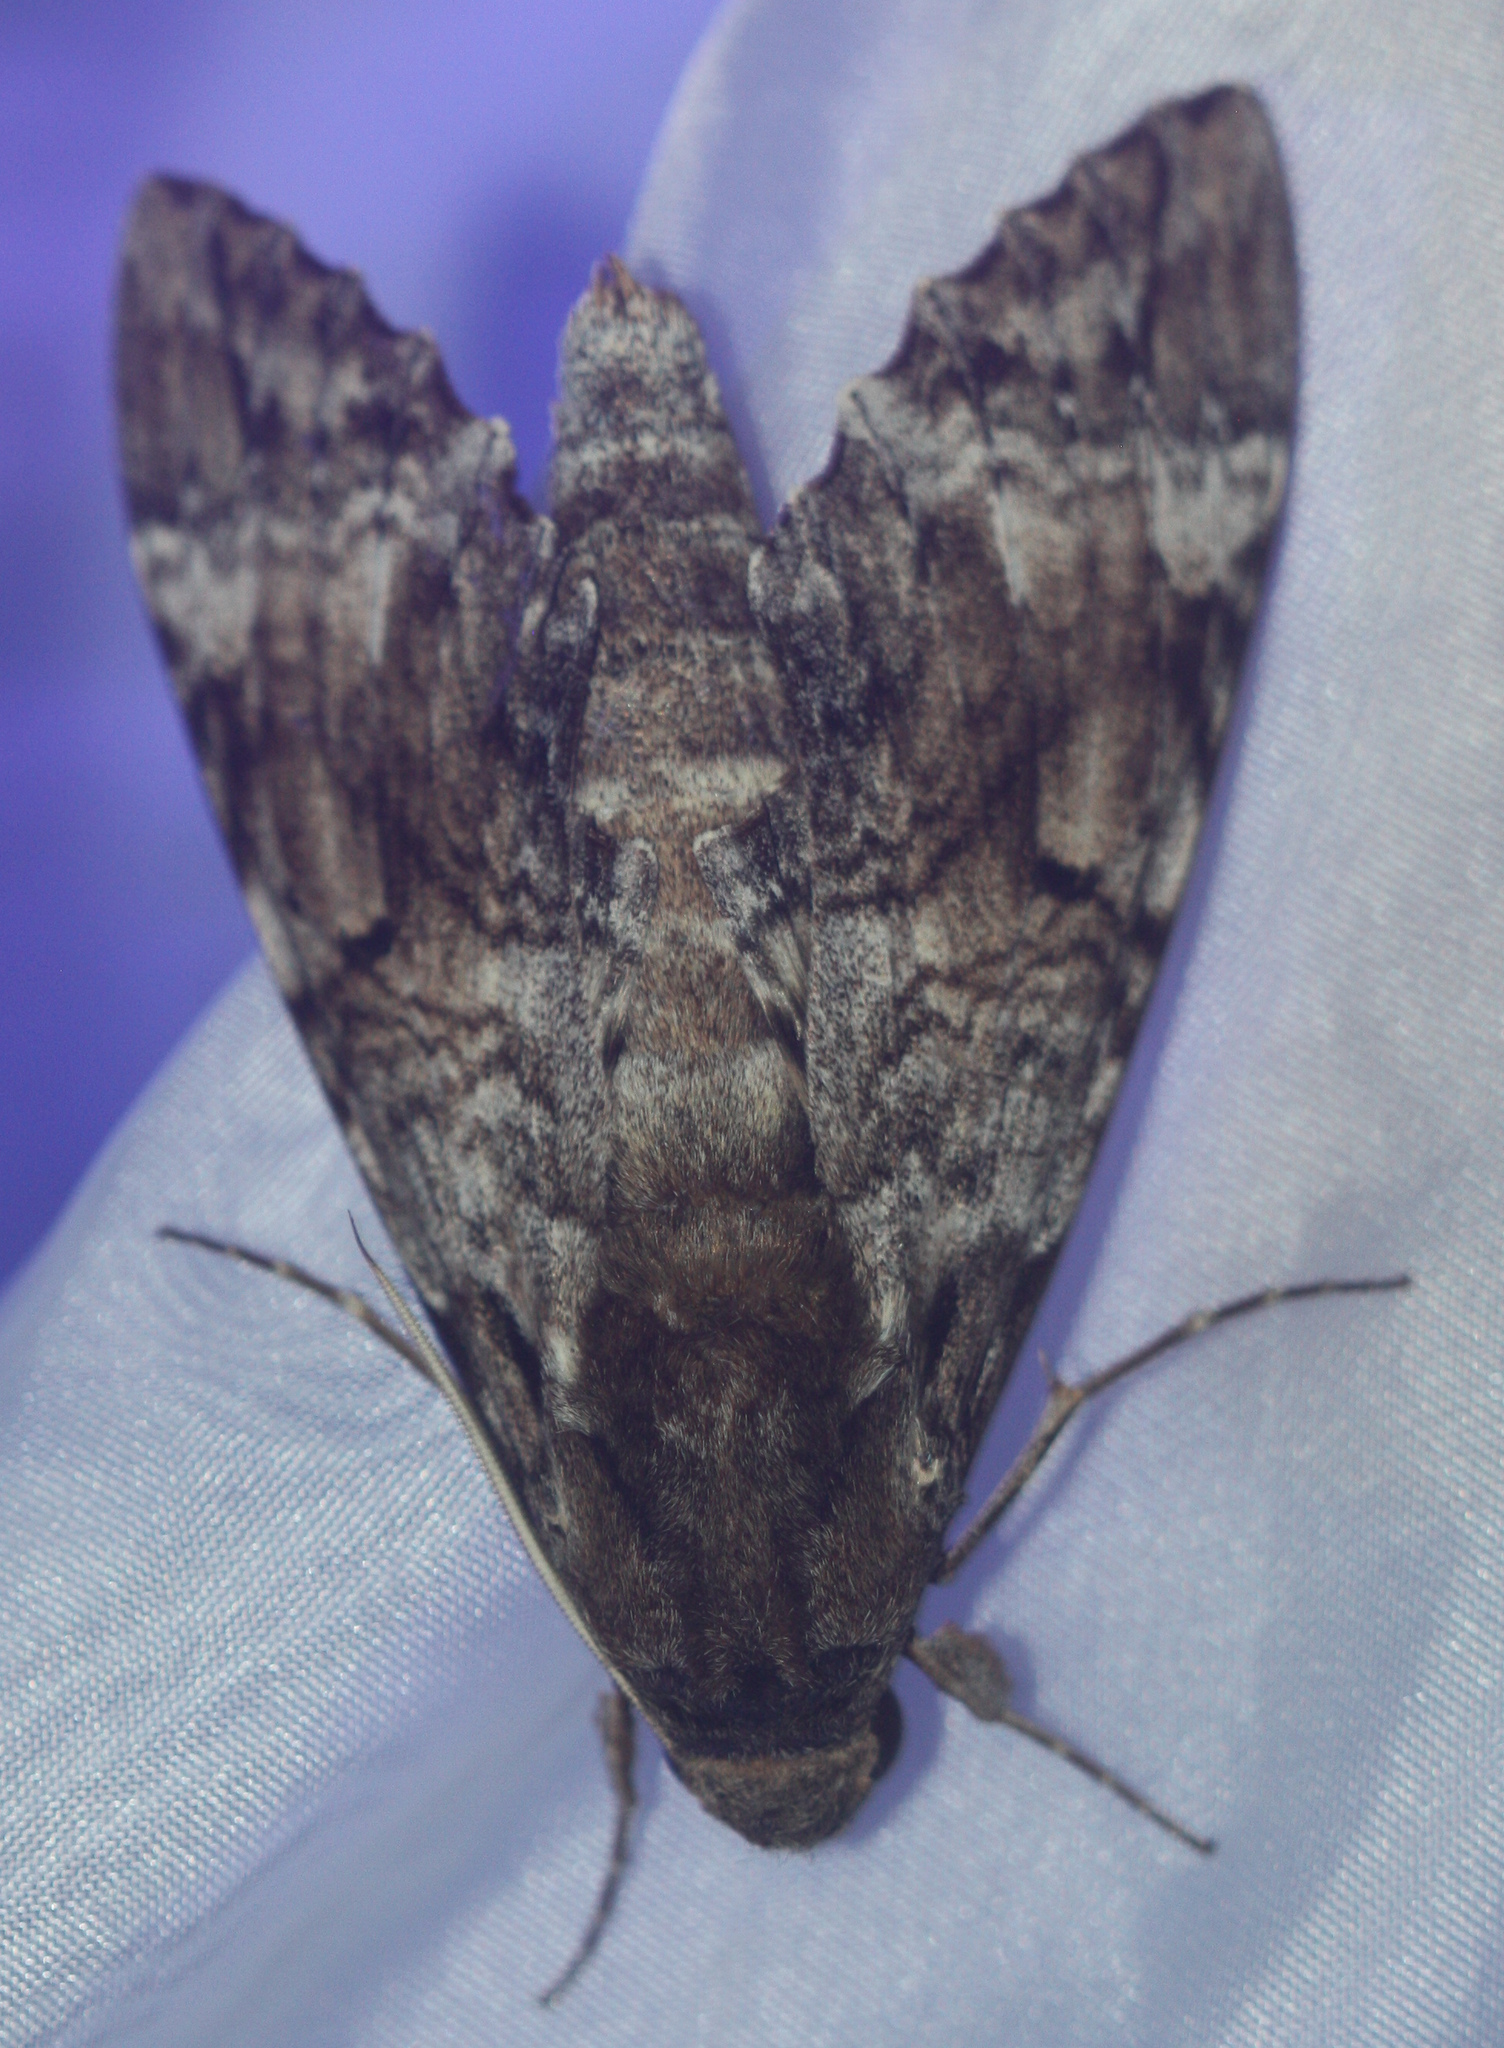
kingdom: Animalia
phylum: Arthropoda
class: Insecta
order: Lepidoptera
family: Sphingidae
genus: Pseudosphinx
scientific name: Pseudosphinx tetrio
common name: Tetrio sphinx
